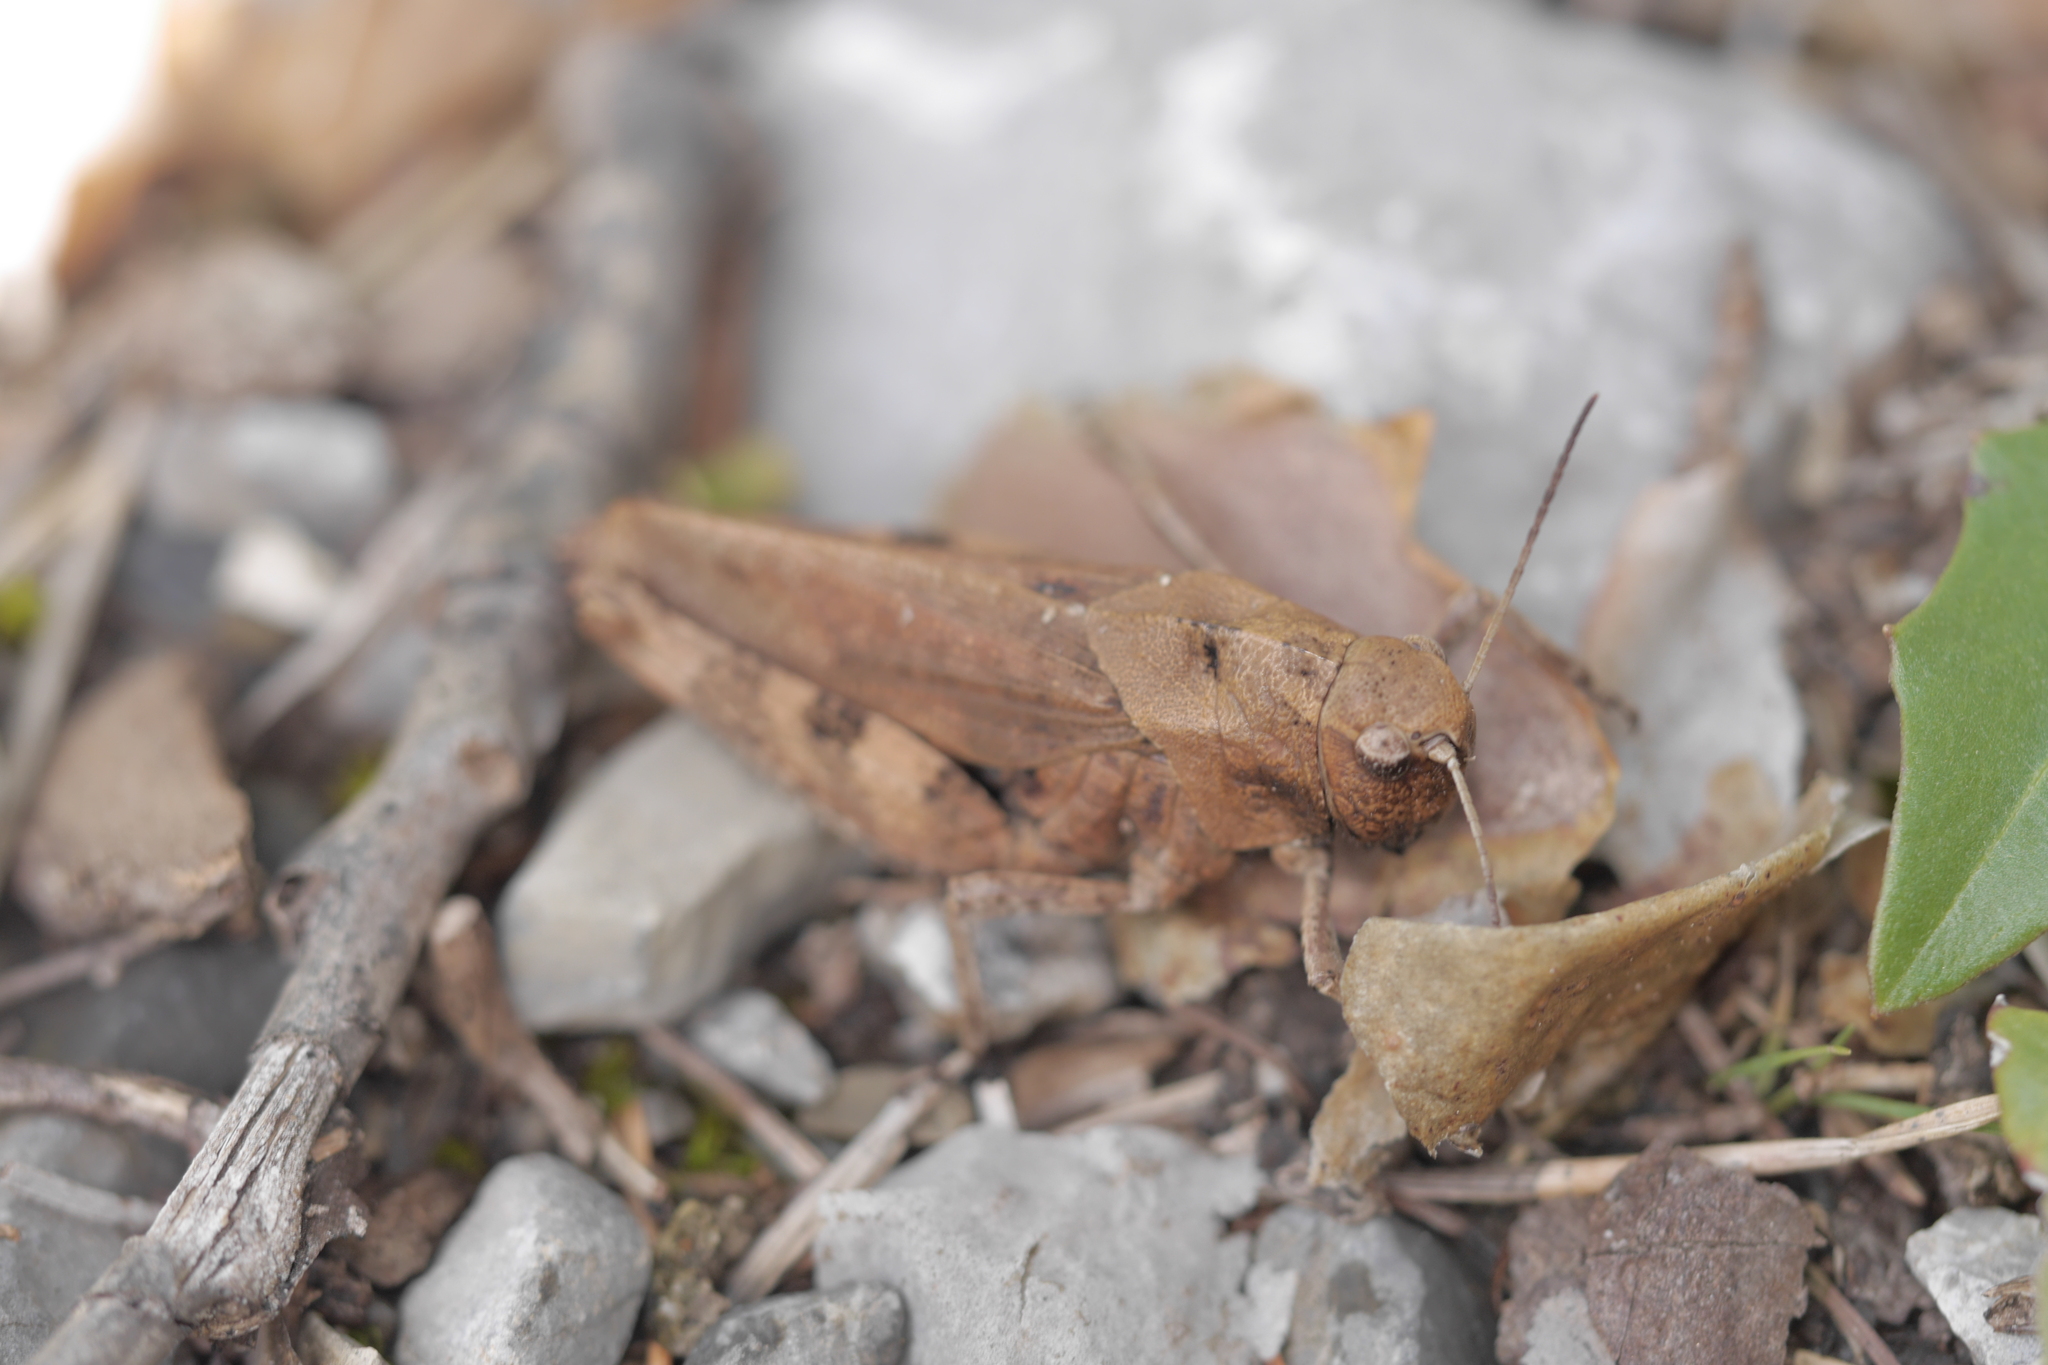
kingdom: Animalia
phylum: Arthropoda
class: Insecta
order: Orthoptera
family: Acrididae
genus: Psophus
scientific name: Psophus stridulus
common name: Rattle grasshopper
